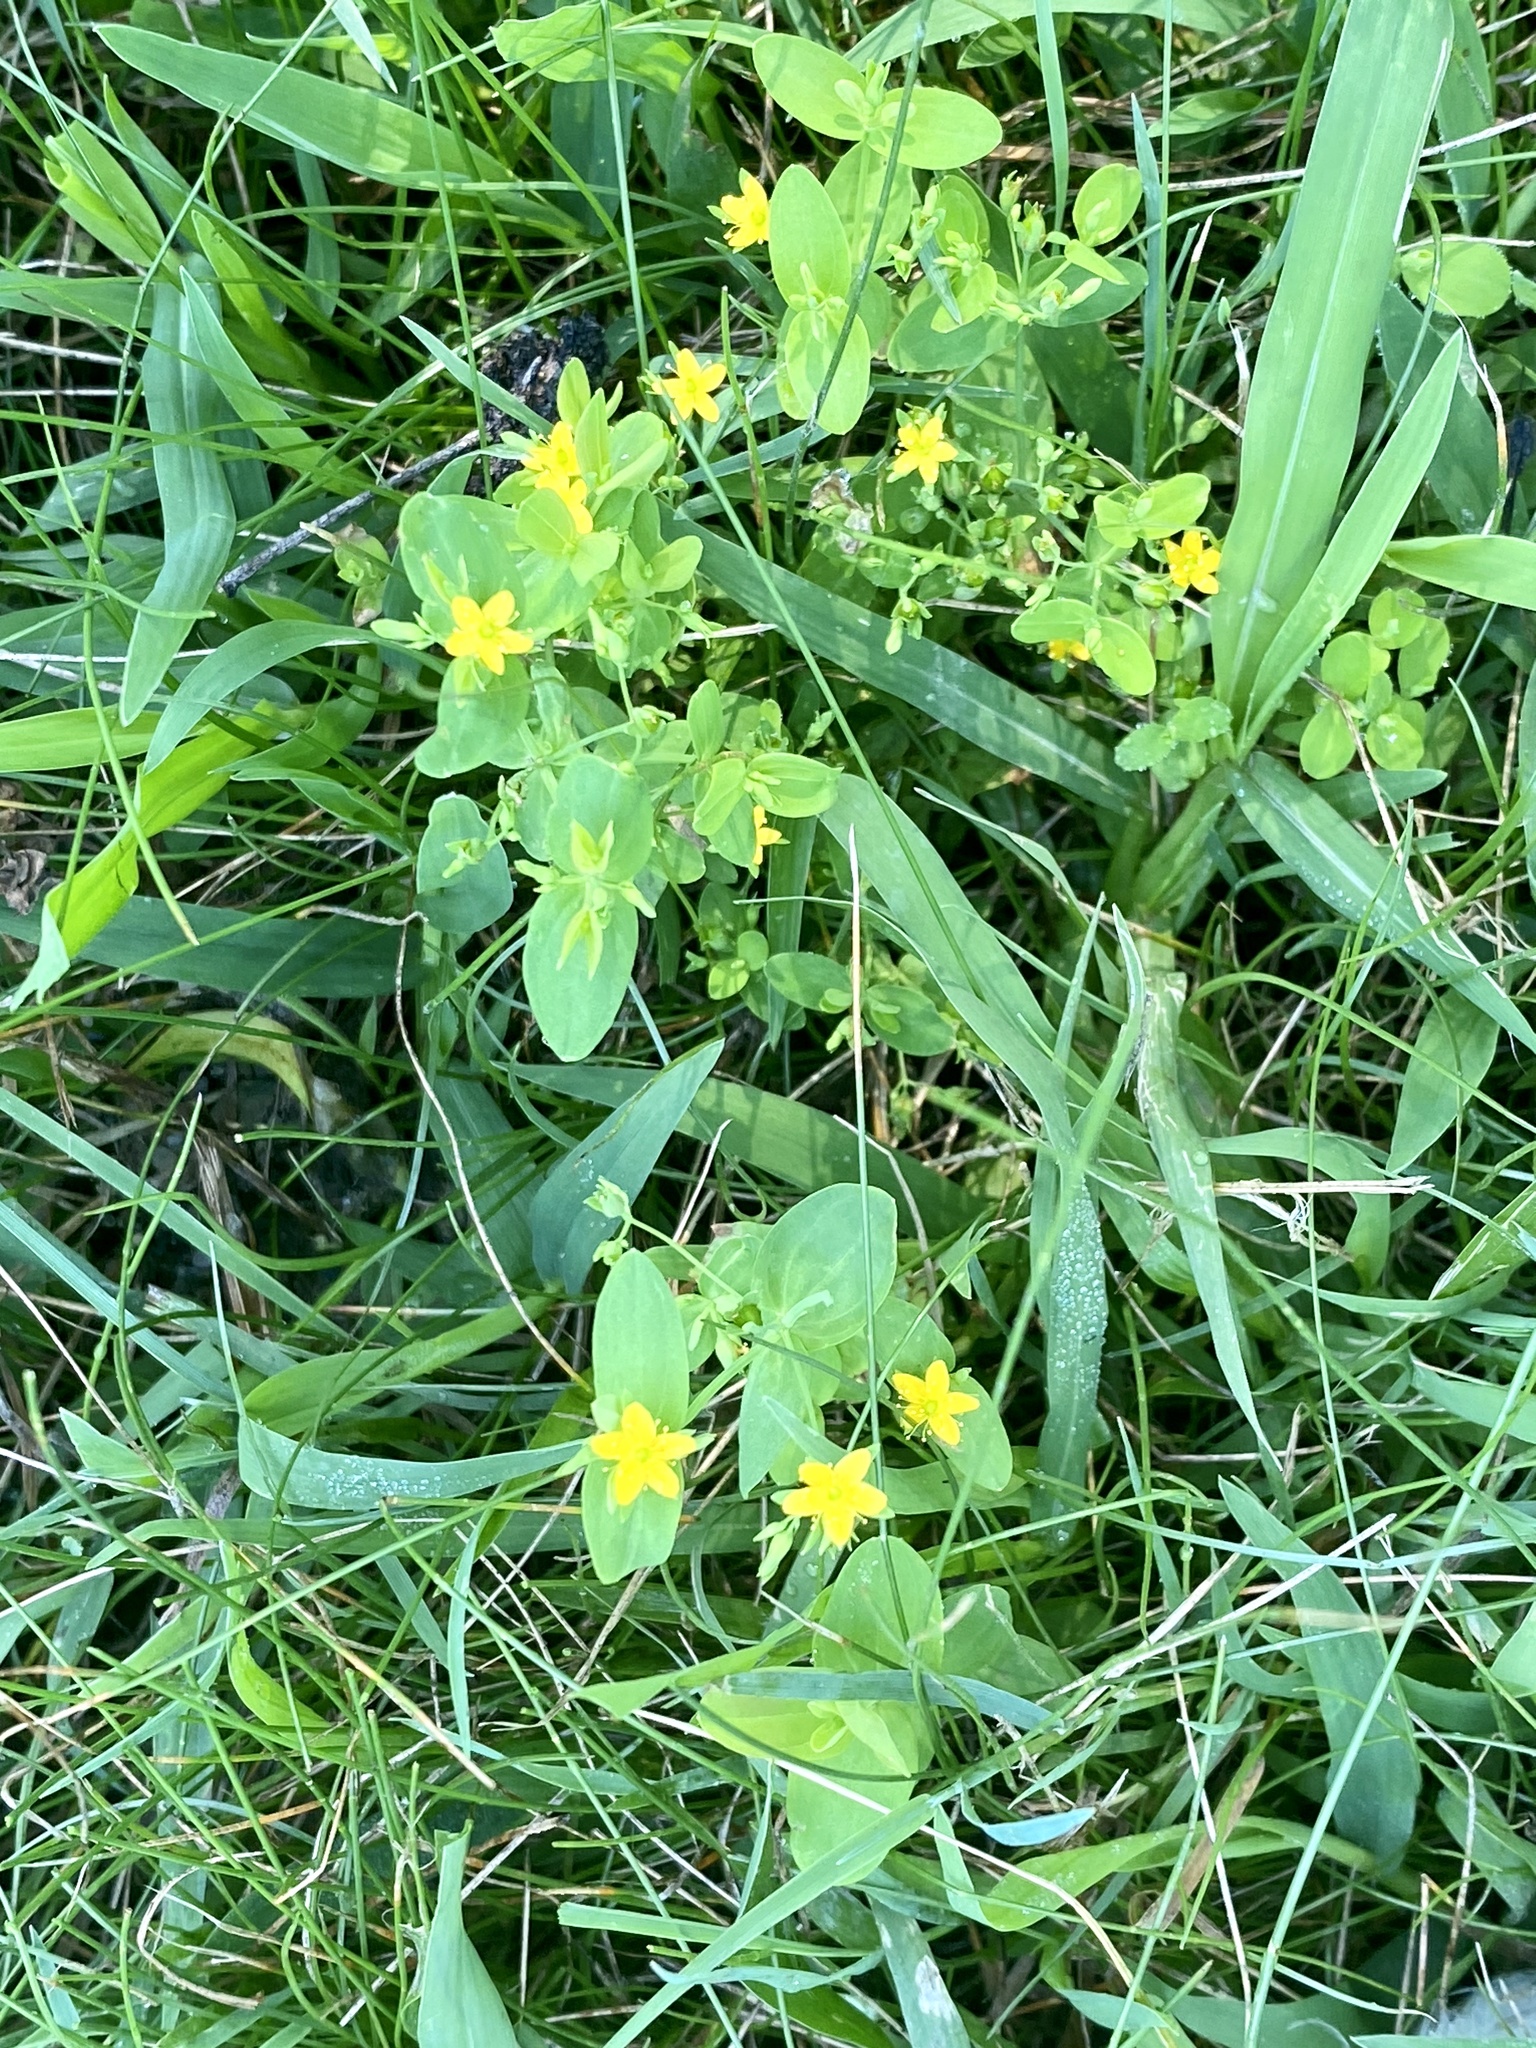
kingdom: Plantae
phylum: Tracheophyta
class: Magnoliopsida
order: Malpighiales
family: Hypericaceae
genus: Hypericum
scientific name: Hypericum mutilum
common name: Dwarf st. john's-wort
